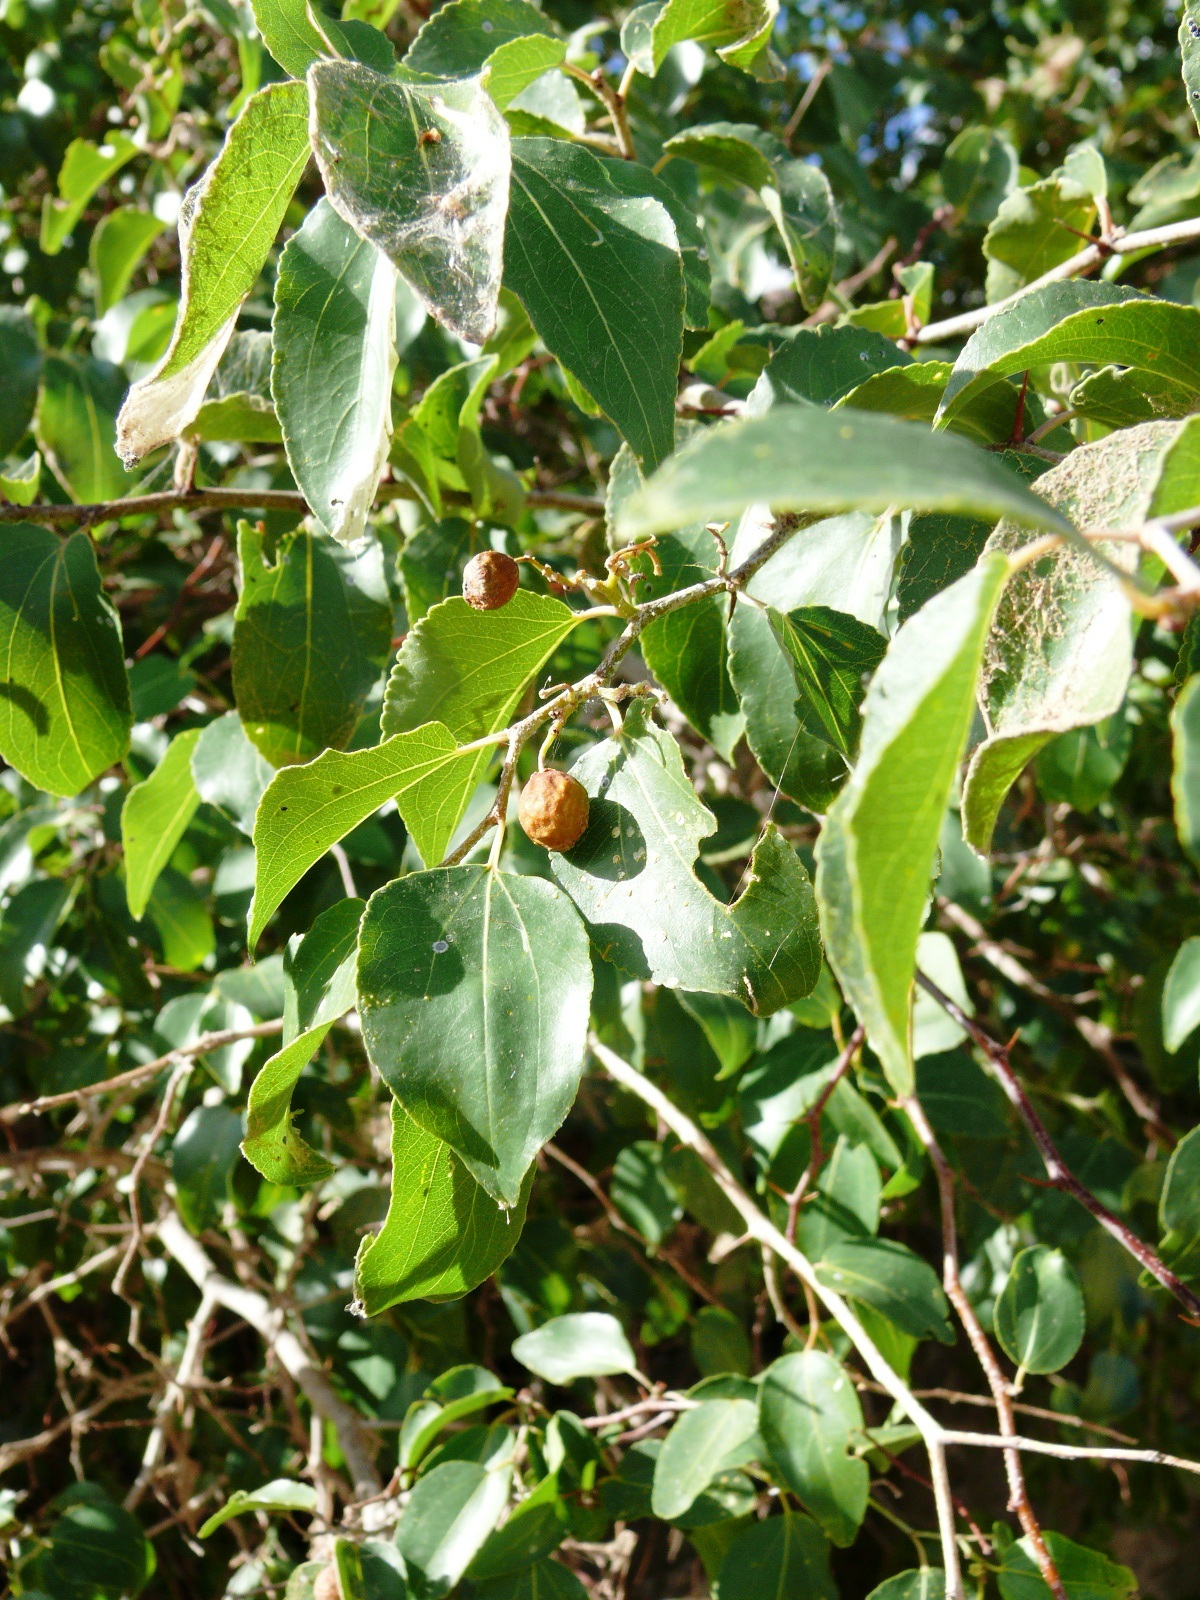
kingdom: Plantae
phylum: Tracheophyta
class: Magnoliopsida
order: Rosales
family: Rhamnaceae
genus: Ziziphus
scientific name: Ziziphus mucronata
